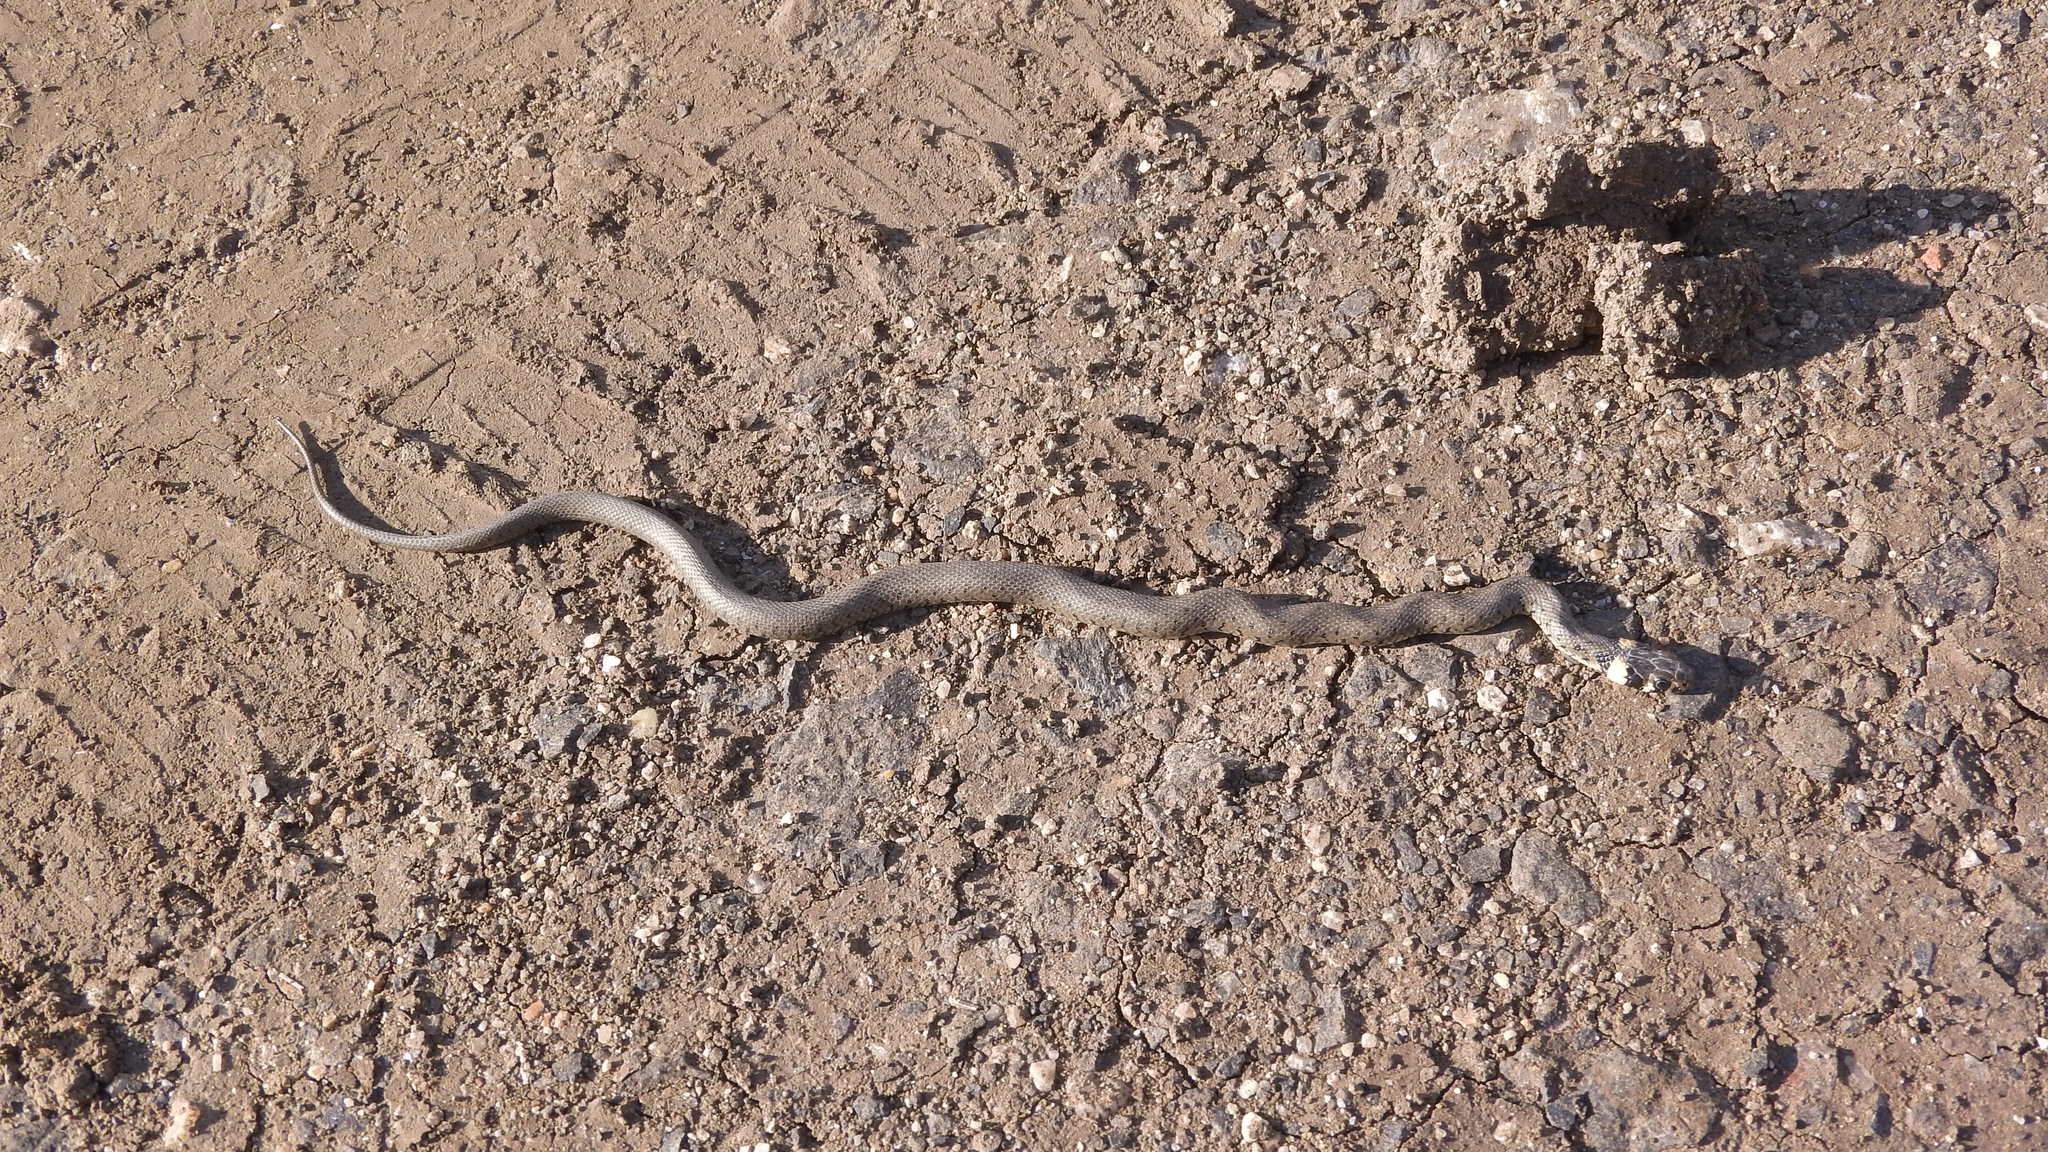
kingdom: Animalia
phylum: Chordata
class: Squamata
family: Colubridae
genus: Natrix
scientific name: Natrix natrix
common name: Grass snake
